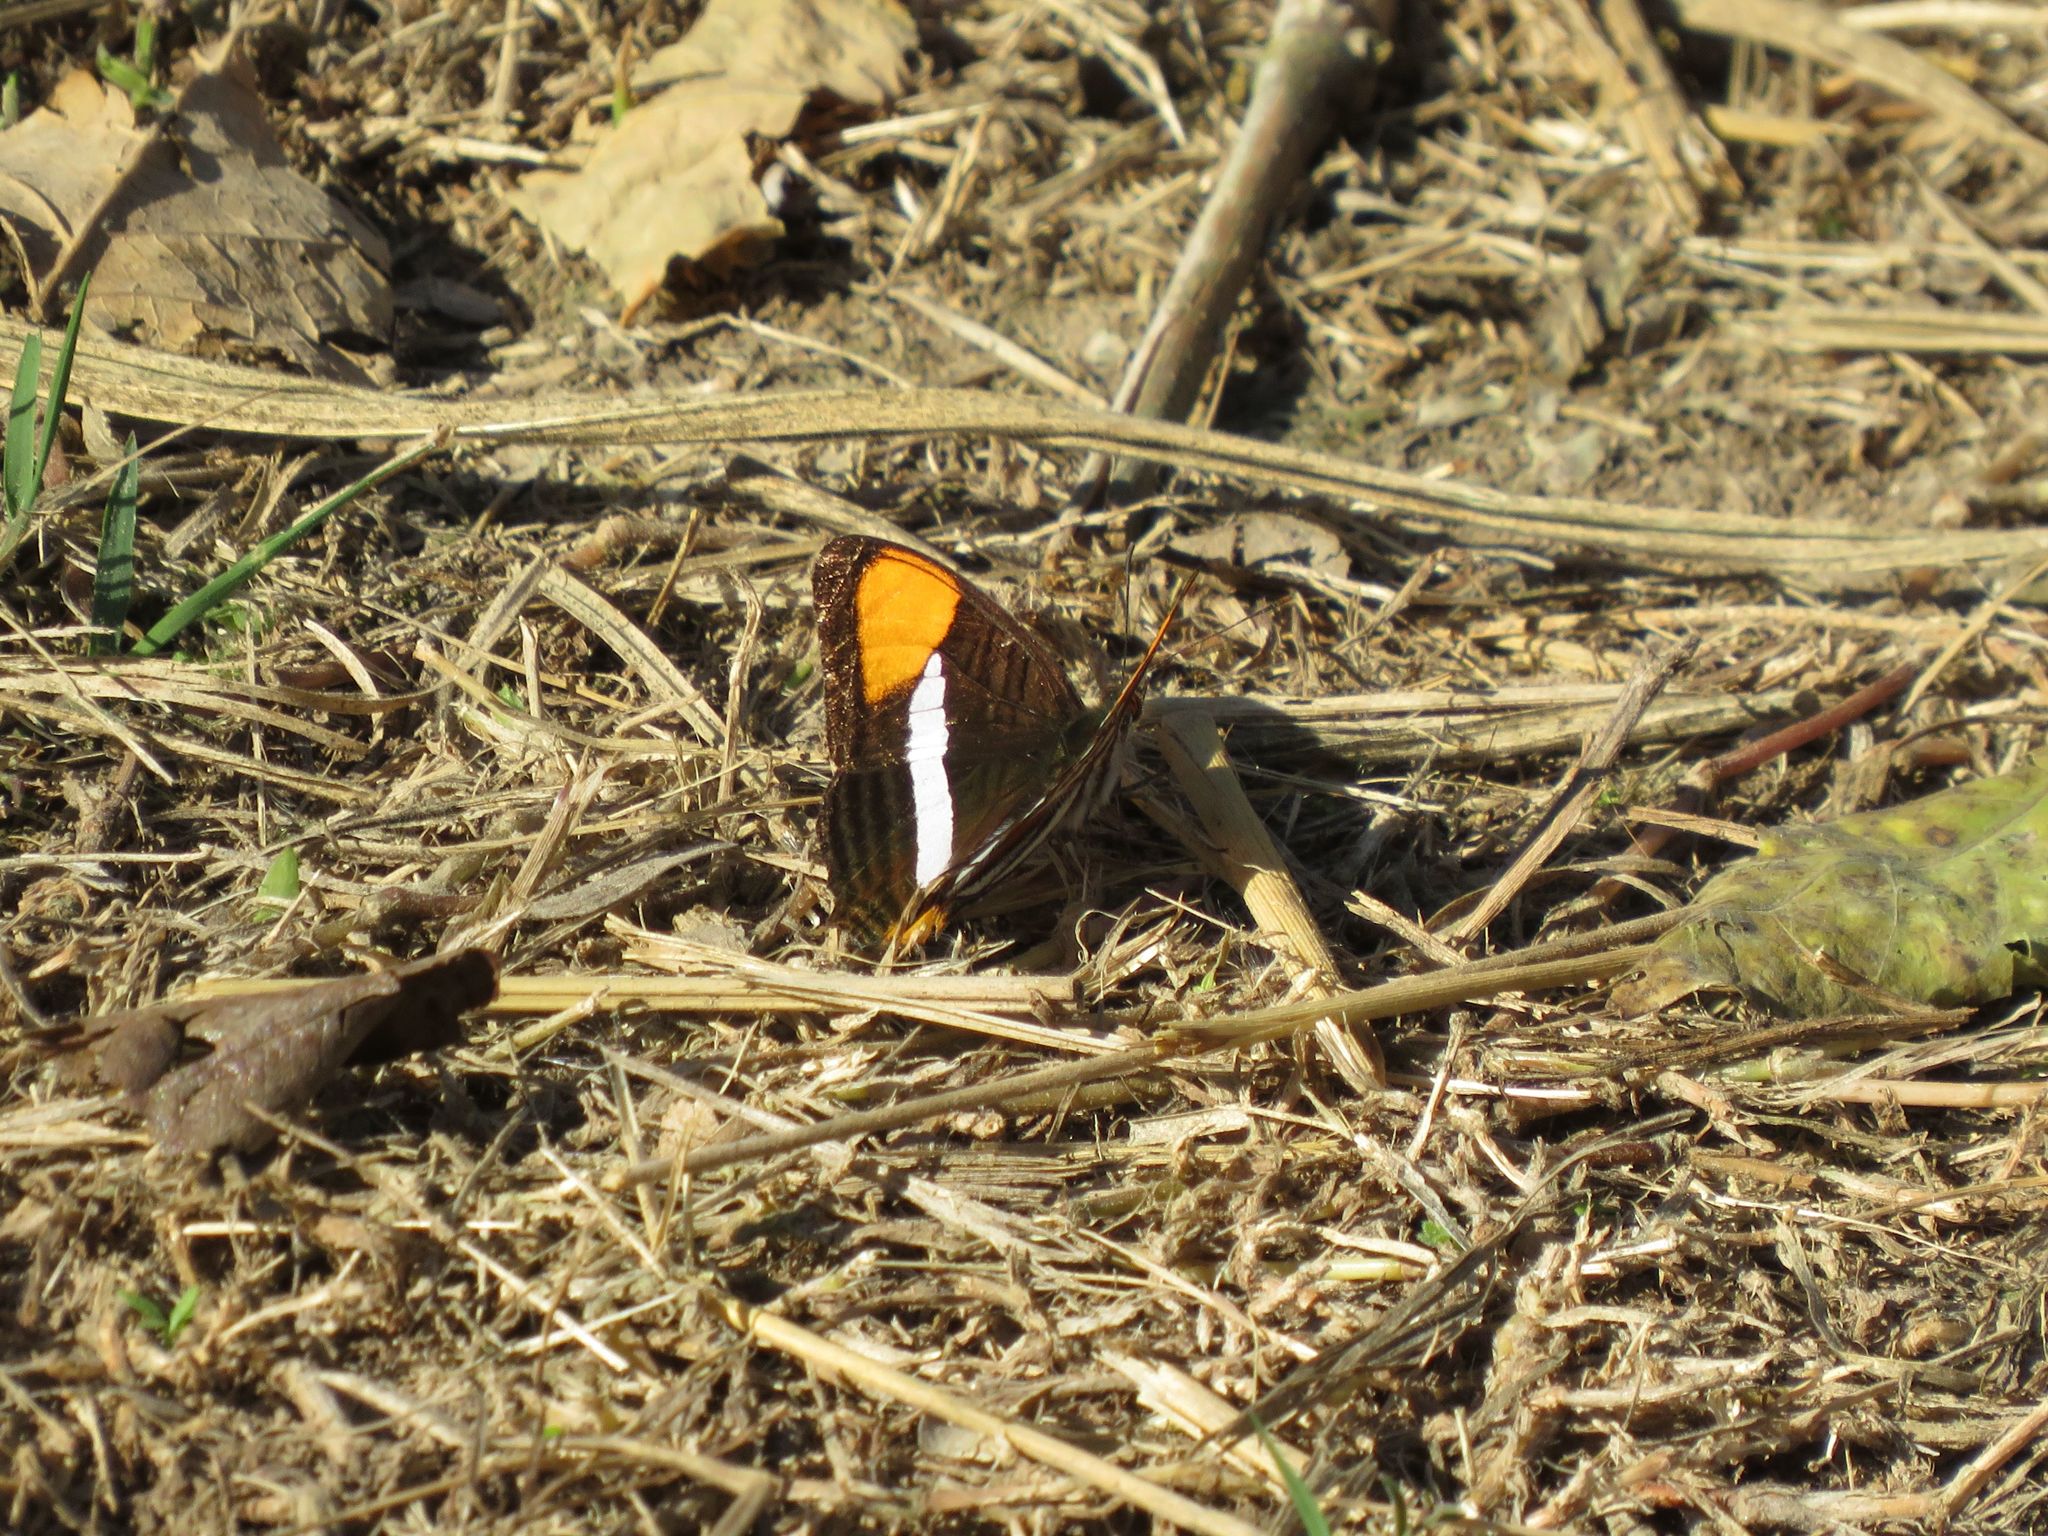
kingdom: Animalia
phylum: Arthropoda
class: Insecta
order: Lepidoptera
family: Nymphalidae
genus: Limenitis
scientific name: Limenitis syma
